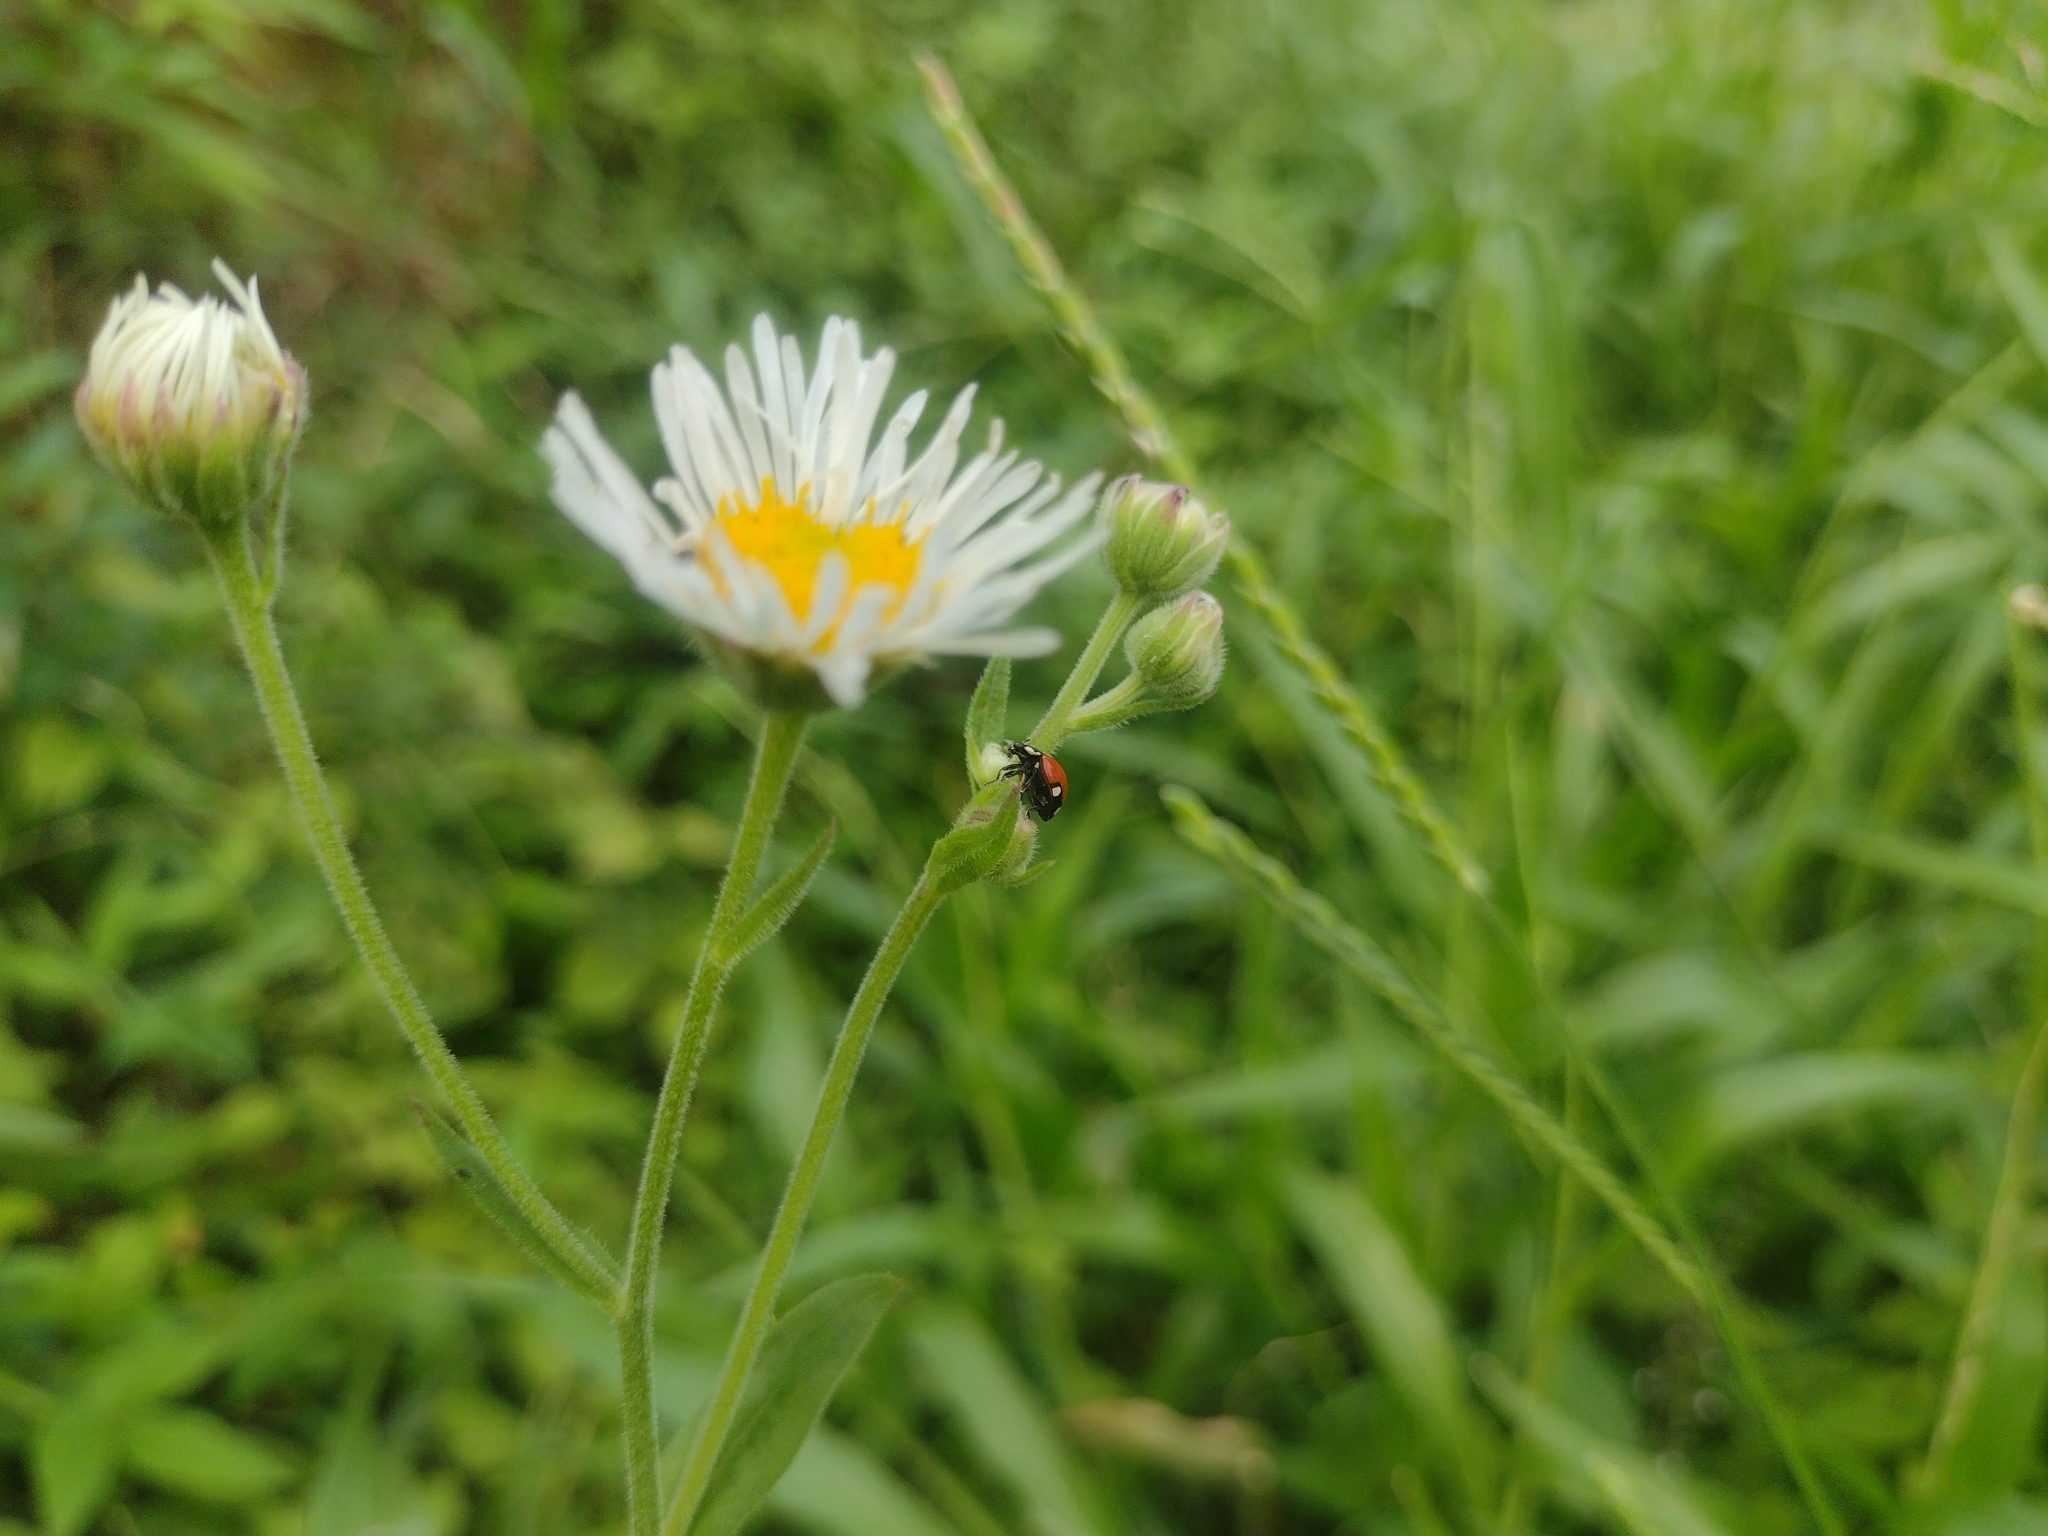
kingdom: Animalia
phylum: Arthropoda
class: Insecta
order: Coleoptera
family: Coccinellidae
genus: Cycloneda
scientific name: Cycloneda
